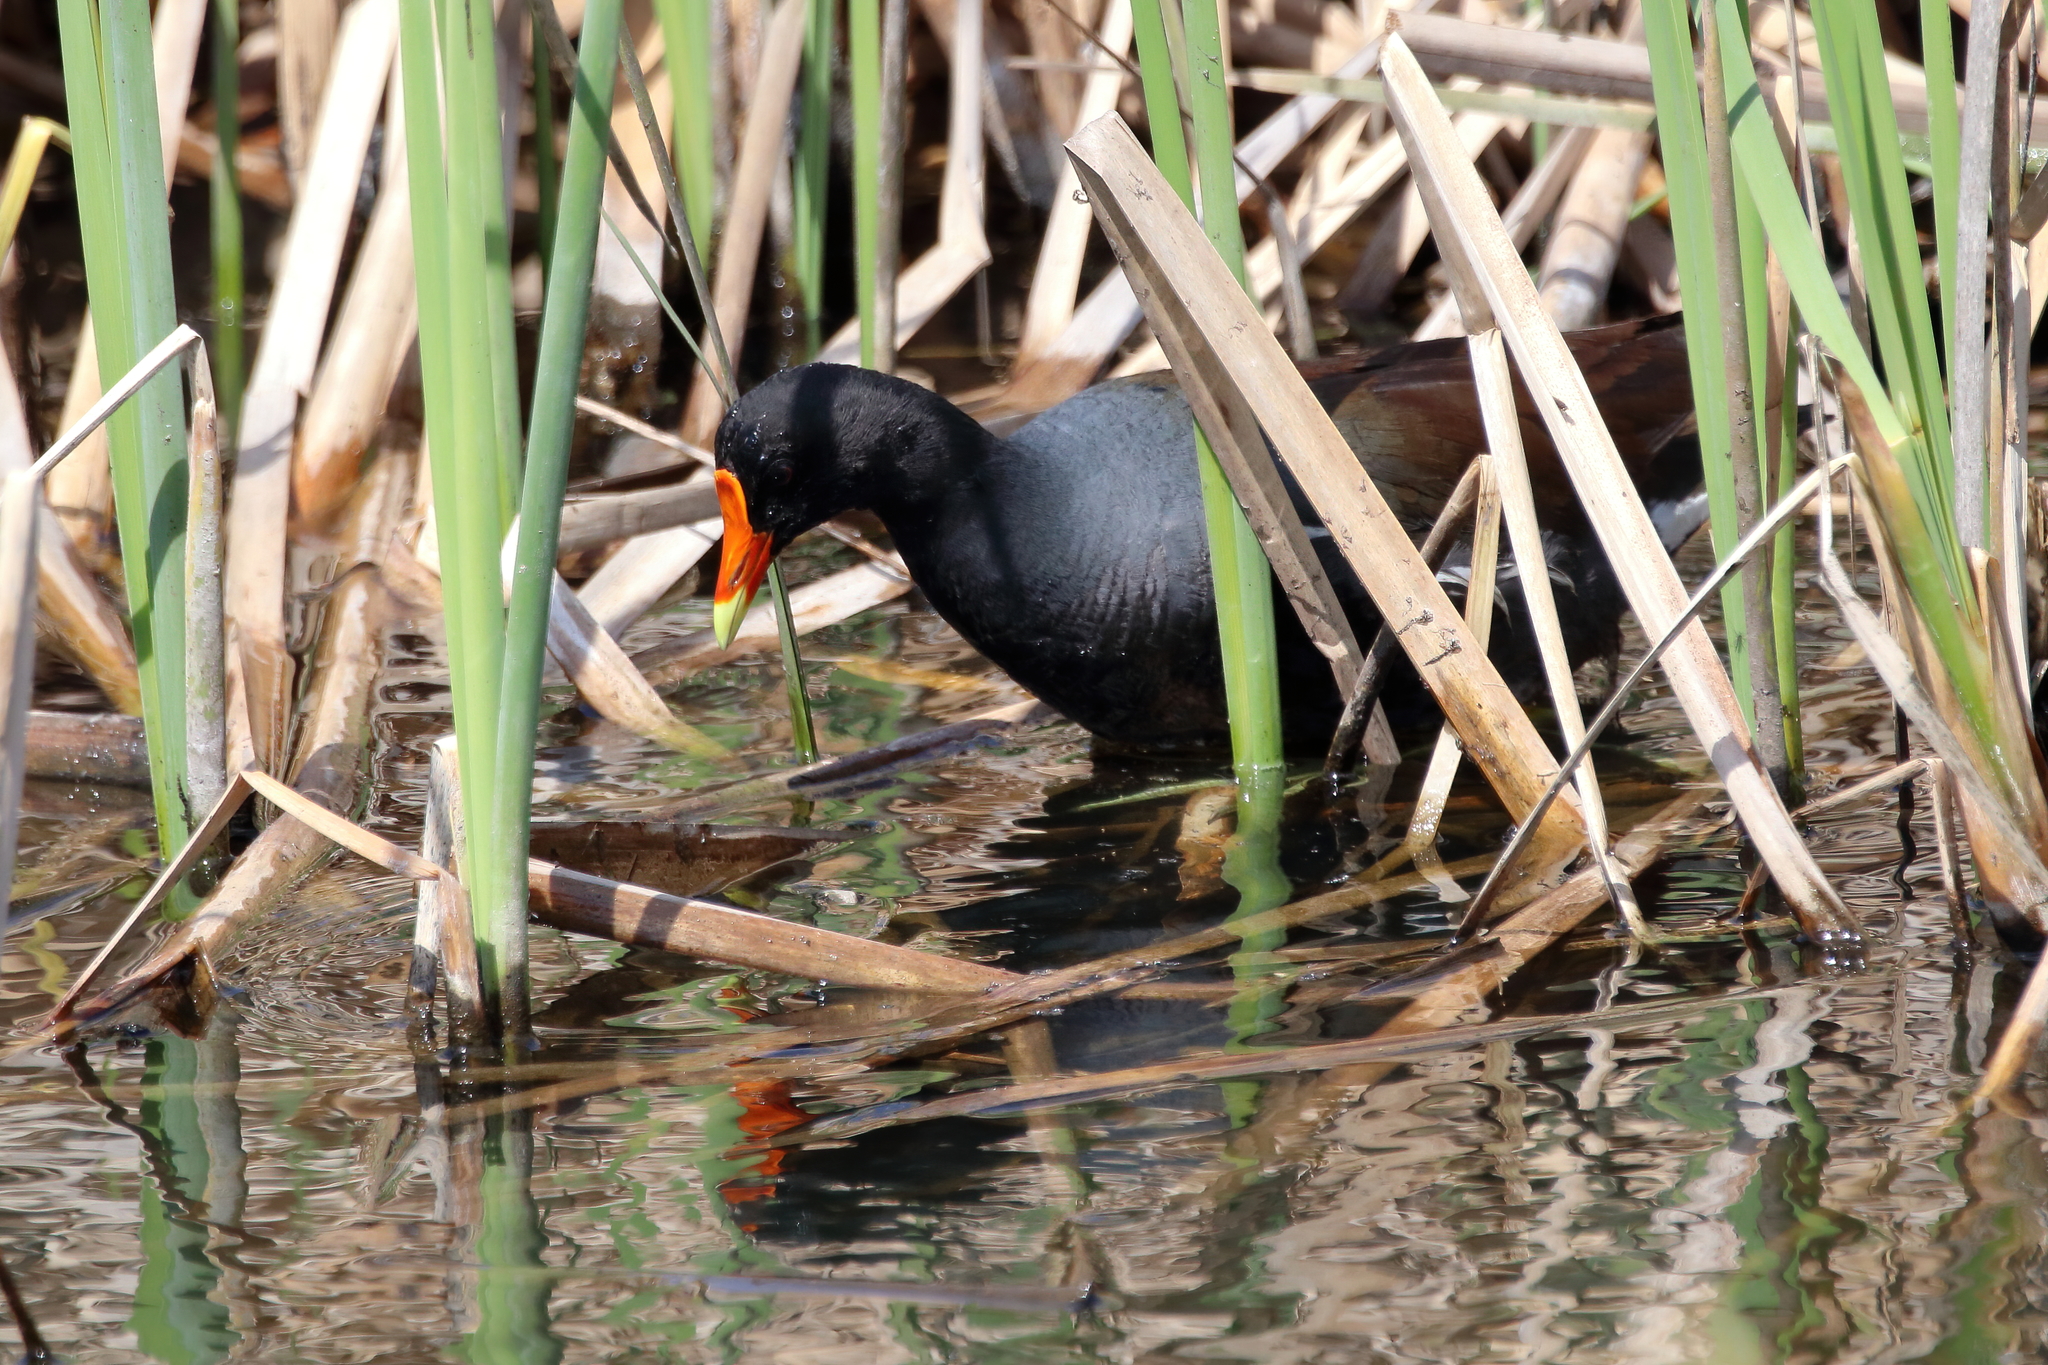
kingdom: Animalia
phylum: Chordata
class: Aves
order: Gruiformes
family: Rallidae
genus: Gallinula
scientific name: Gallinula chloropus
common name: Common moorhen
